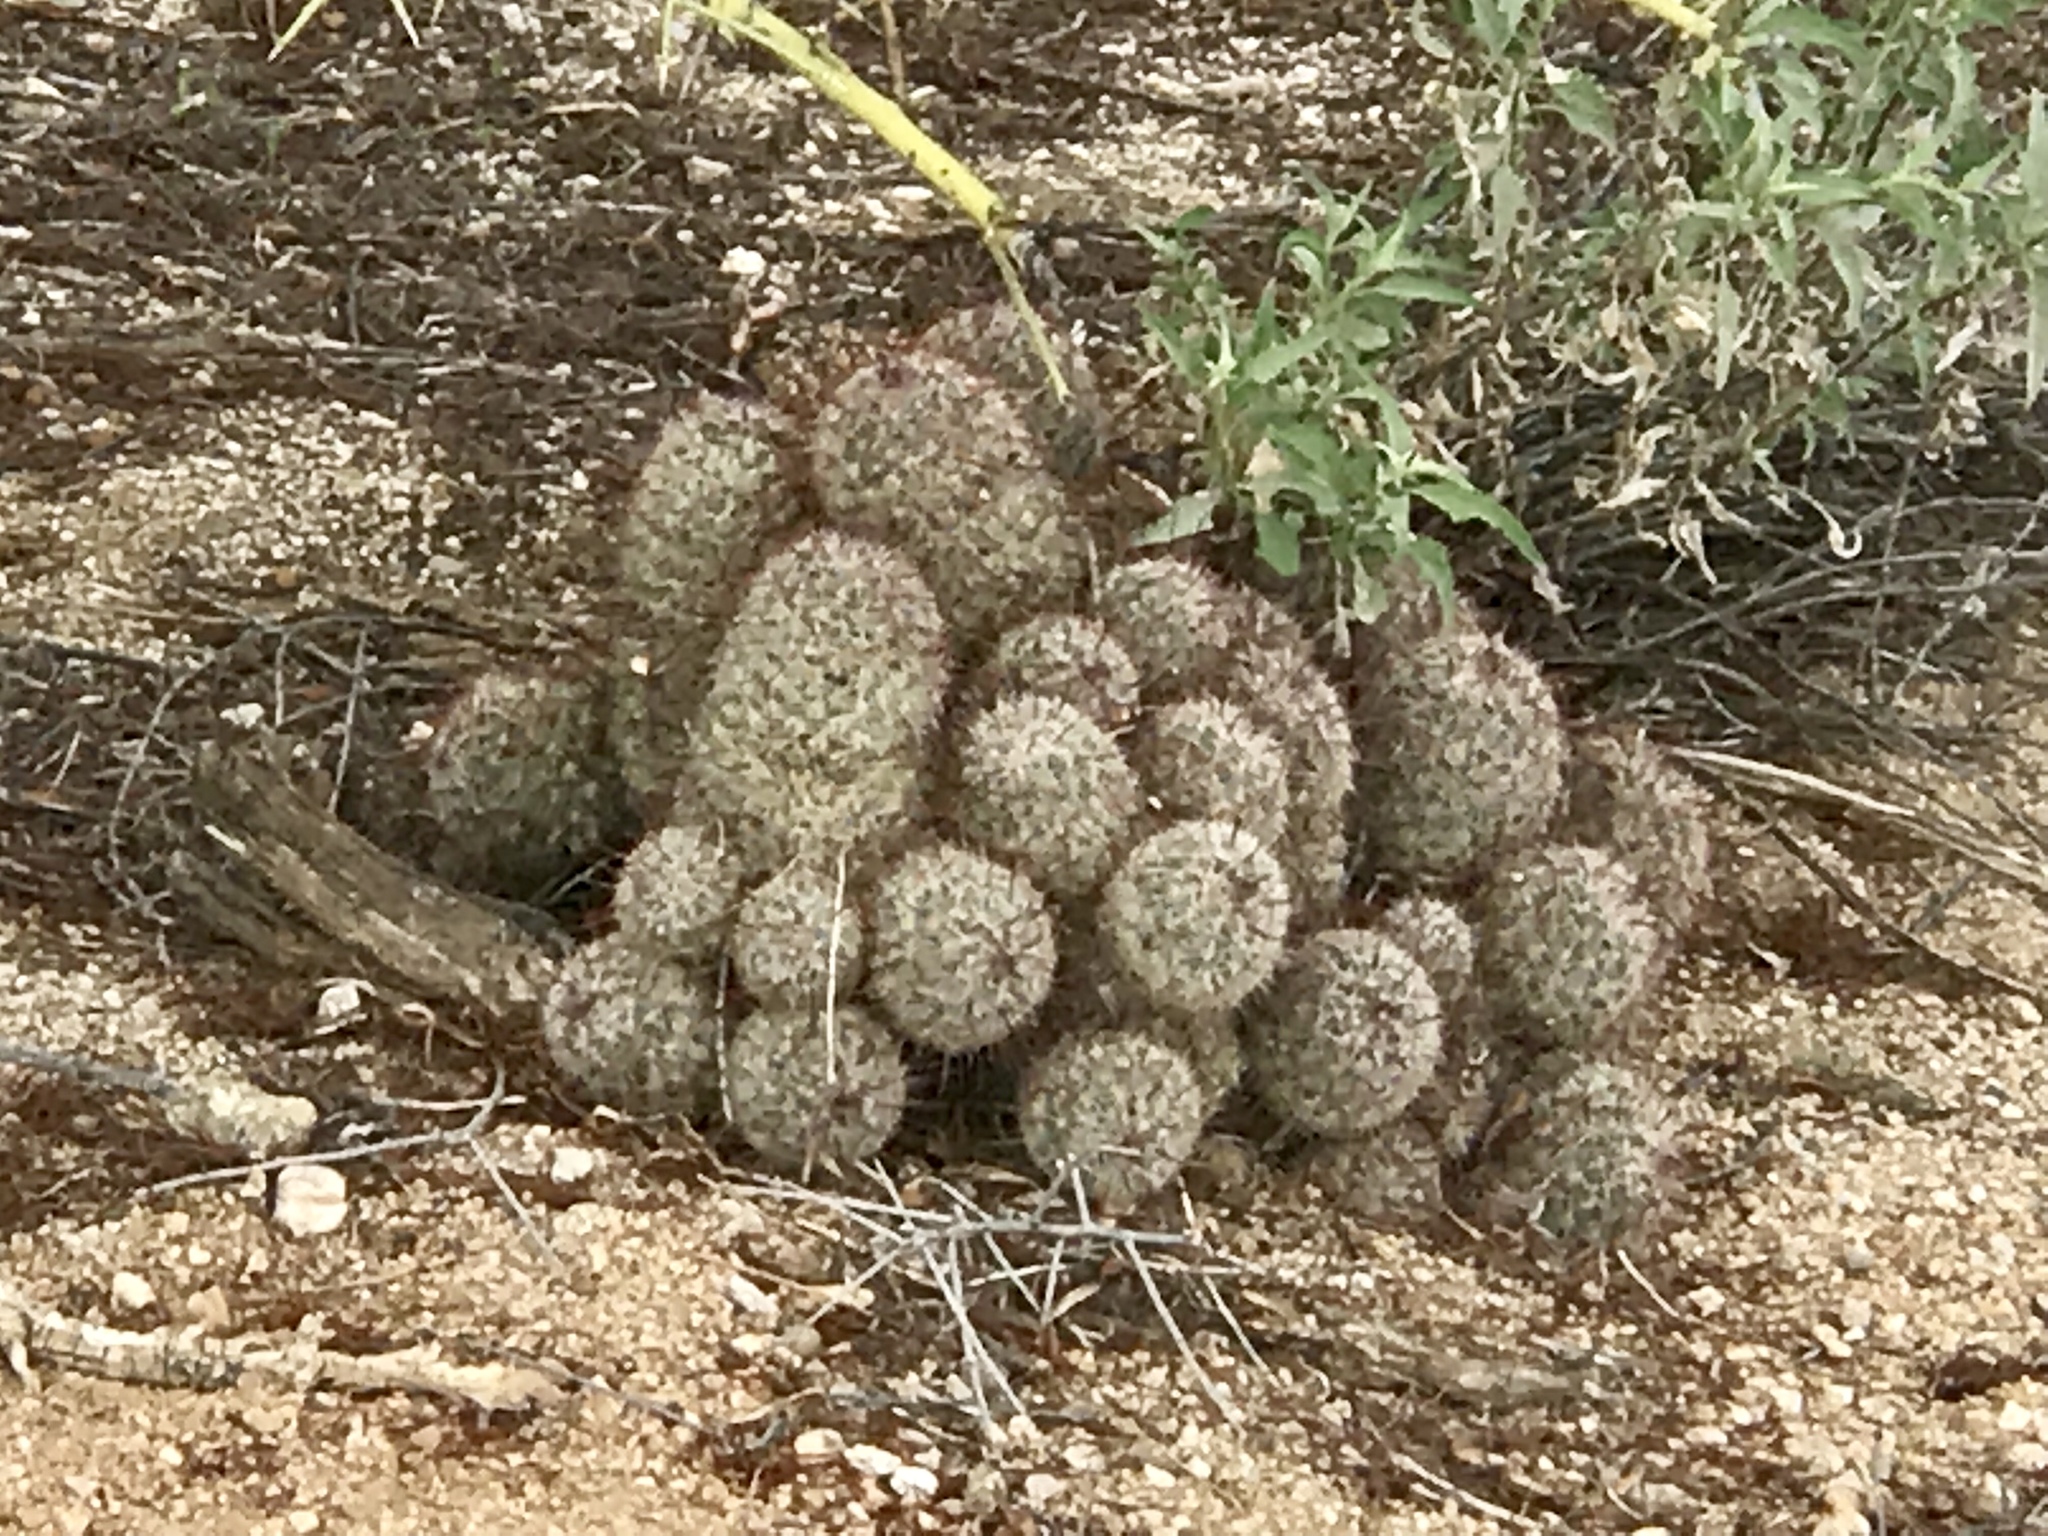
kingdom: Plantae
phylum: Tracheophyta
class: Magnoliopsida
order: Caryophyllales
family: Cactaceae
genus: Cochemiea
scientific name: Cochemiea grahamii
